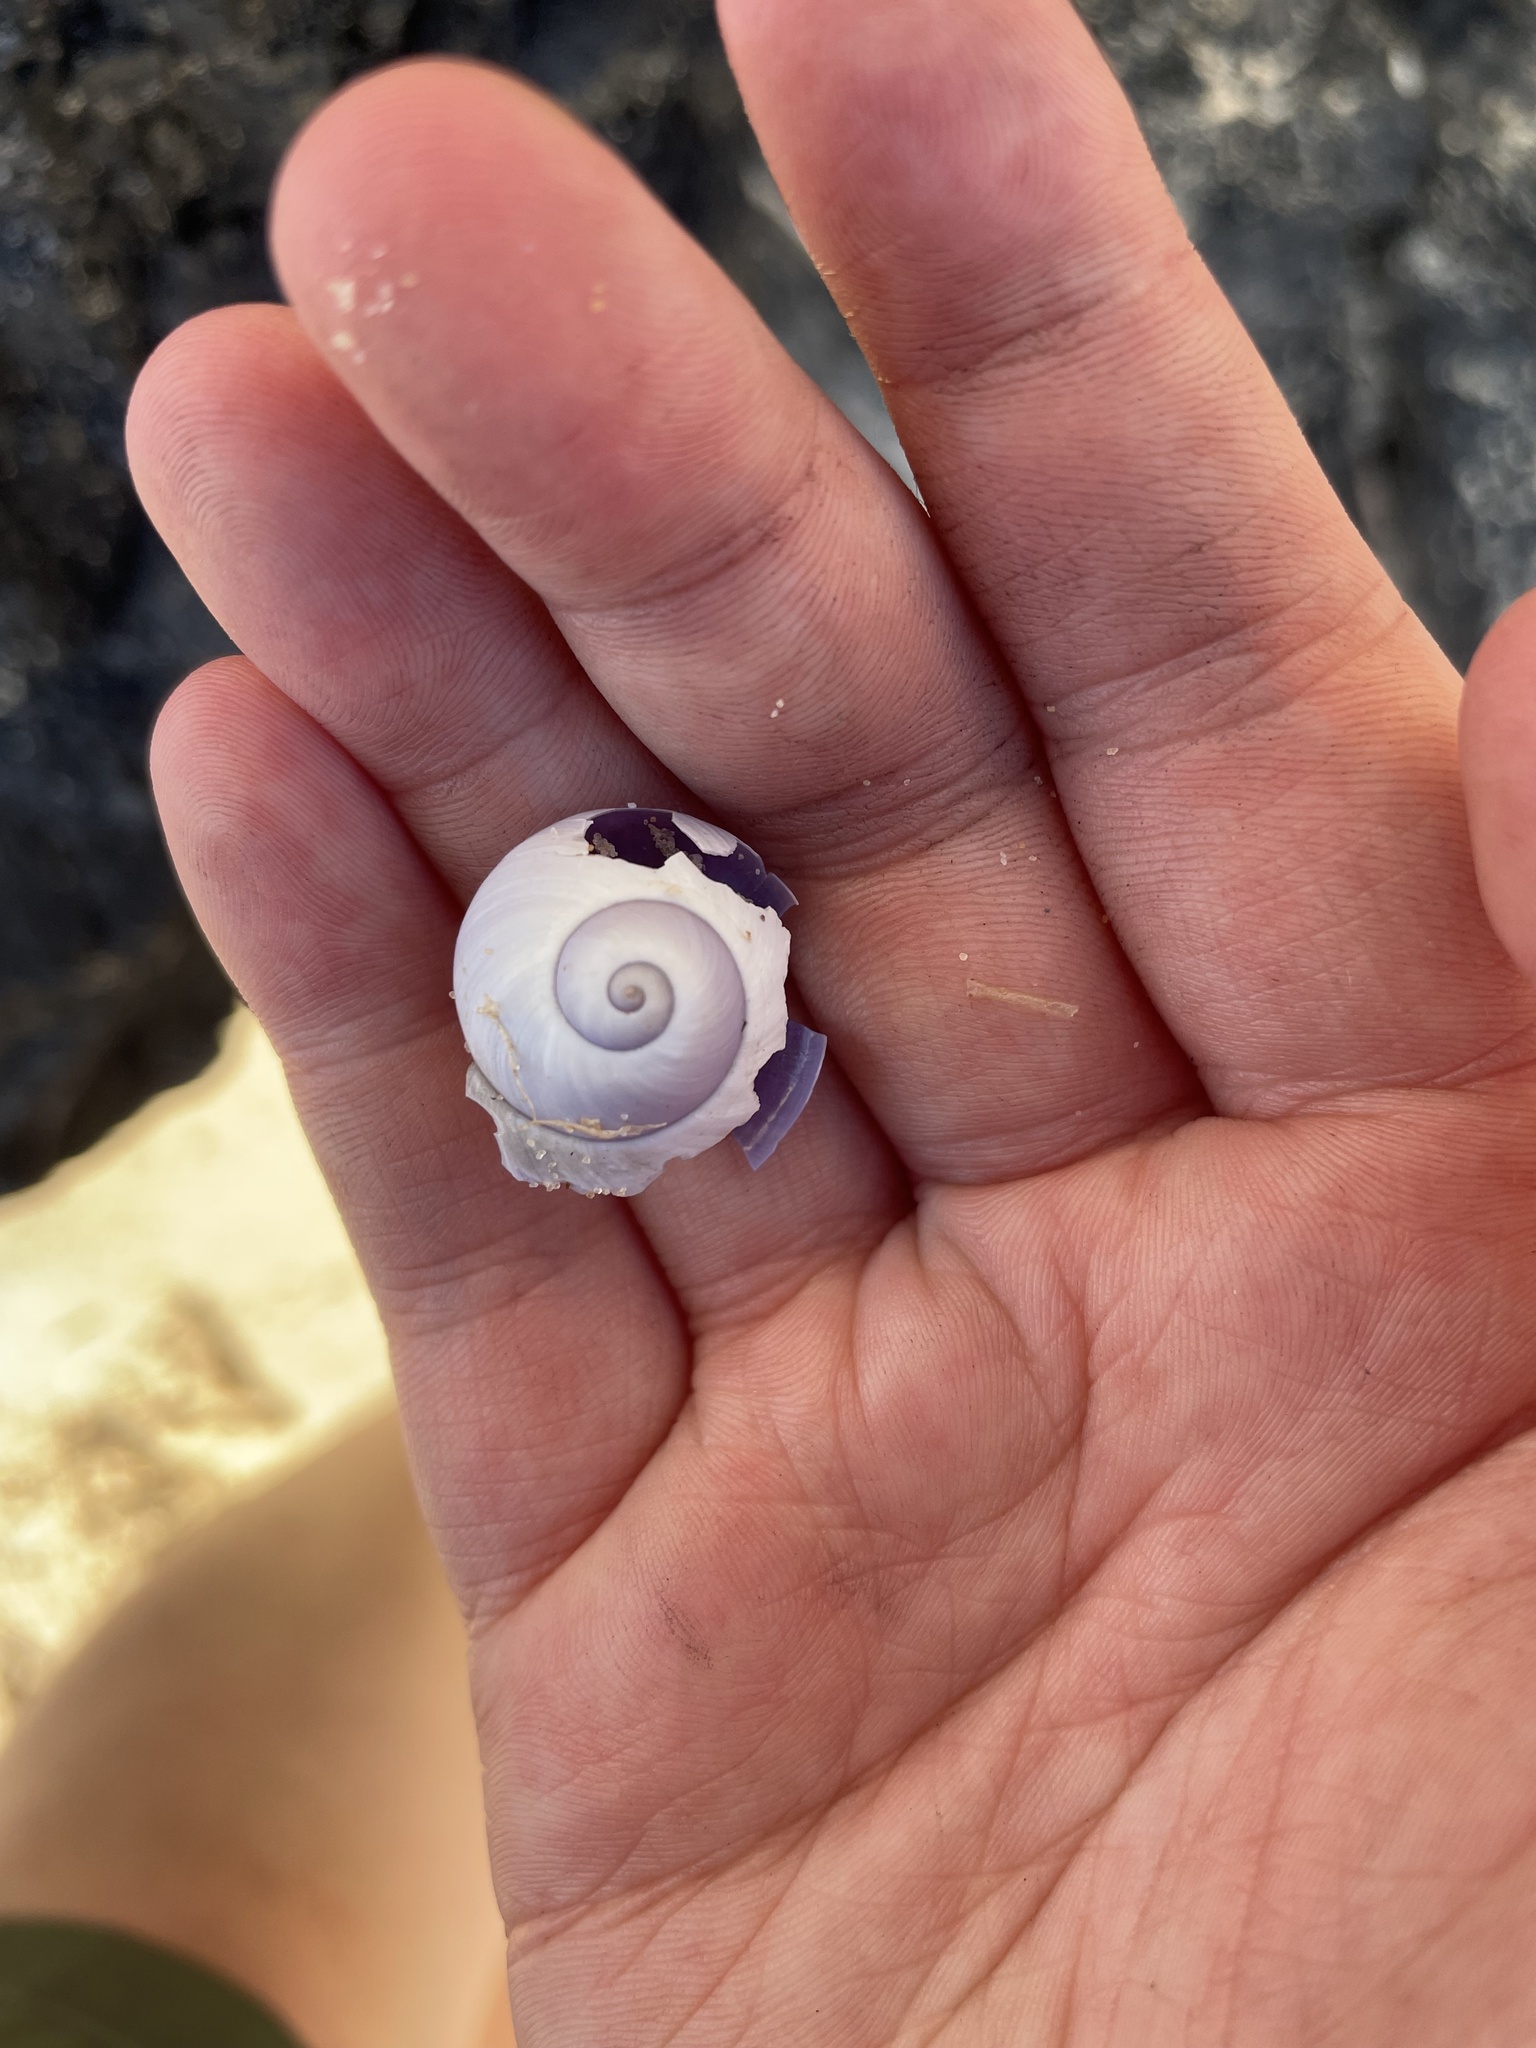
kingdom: Animalia
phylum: Mollusca
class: Gastropoda
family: Epitoniidae
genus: Janthina
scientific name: Janthina janthina
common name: Common janthina
